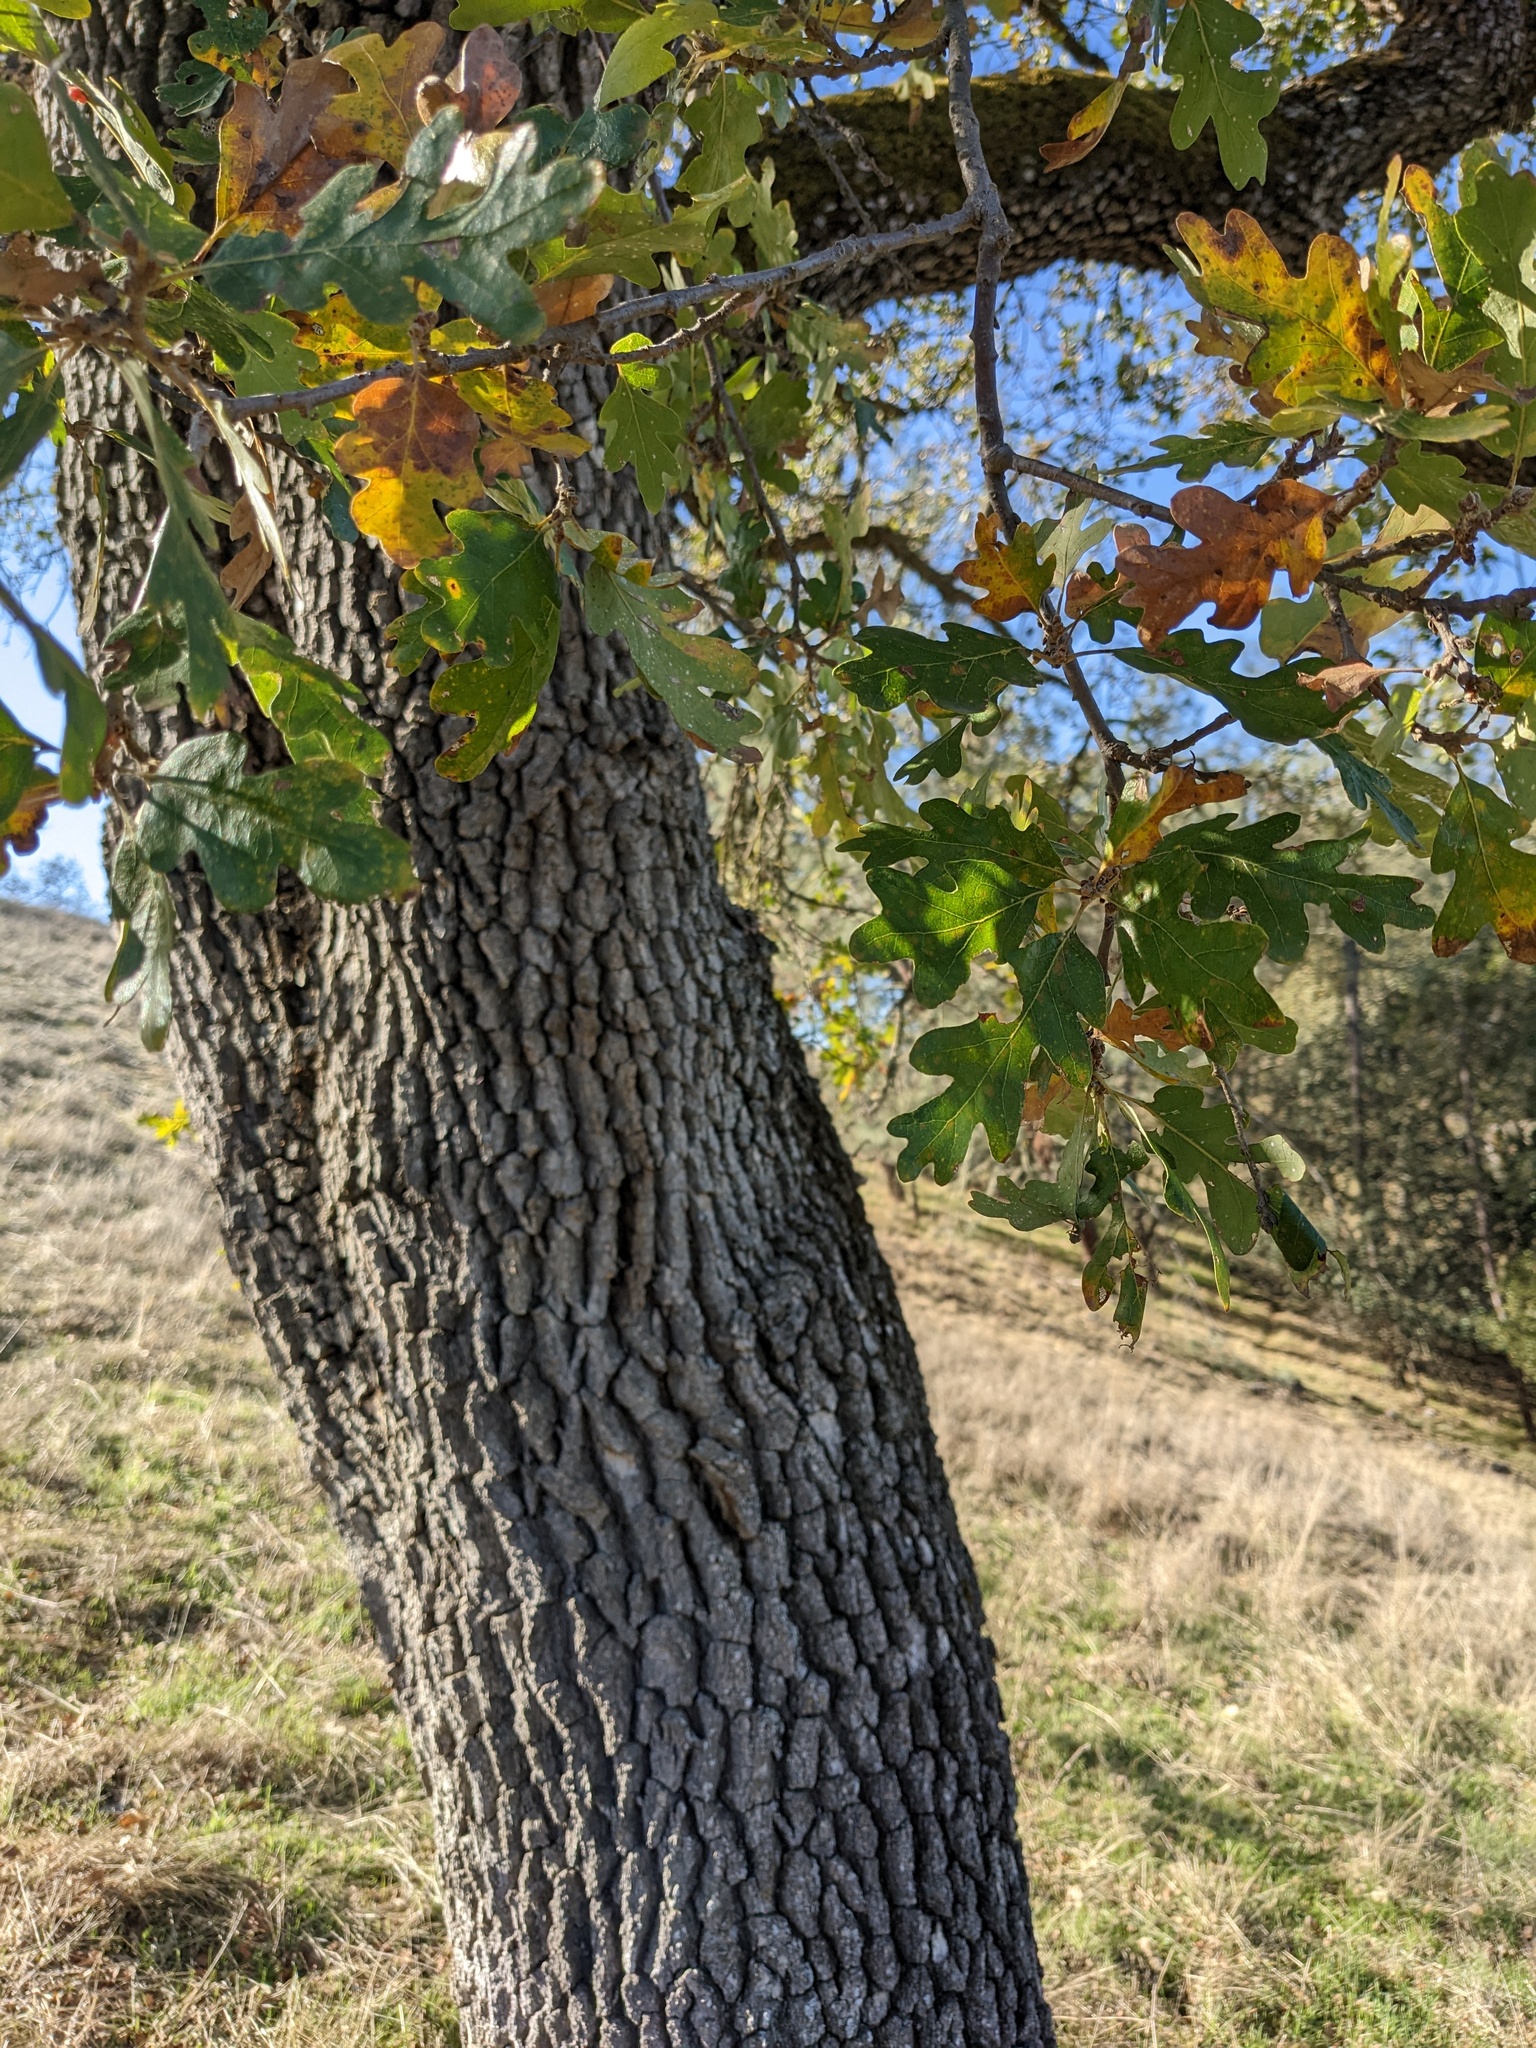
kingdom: Plantae
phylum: Tracheophyta
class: Magnoliopsida
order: Fagales
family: Fagaceae
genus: Quercus
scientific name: Quercus lobata
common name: Valley oak
